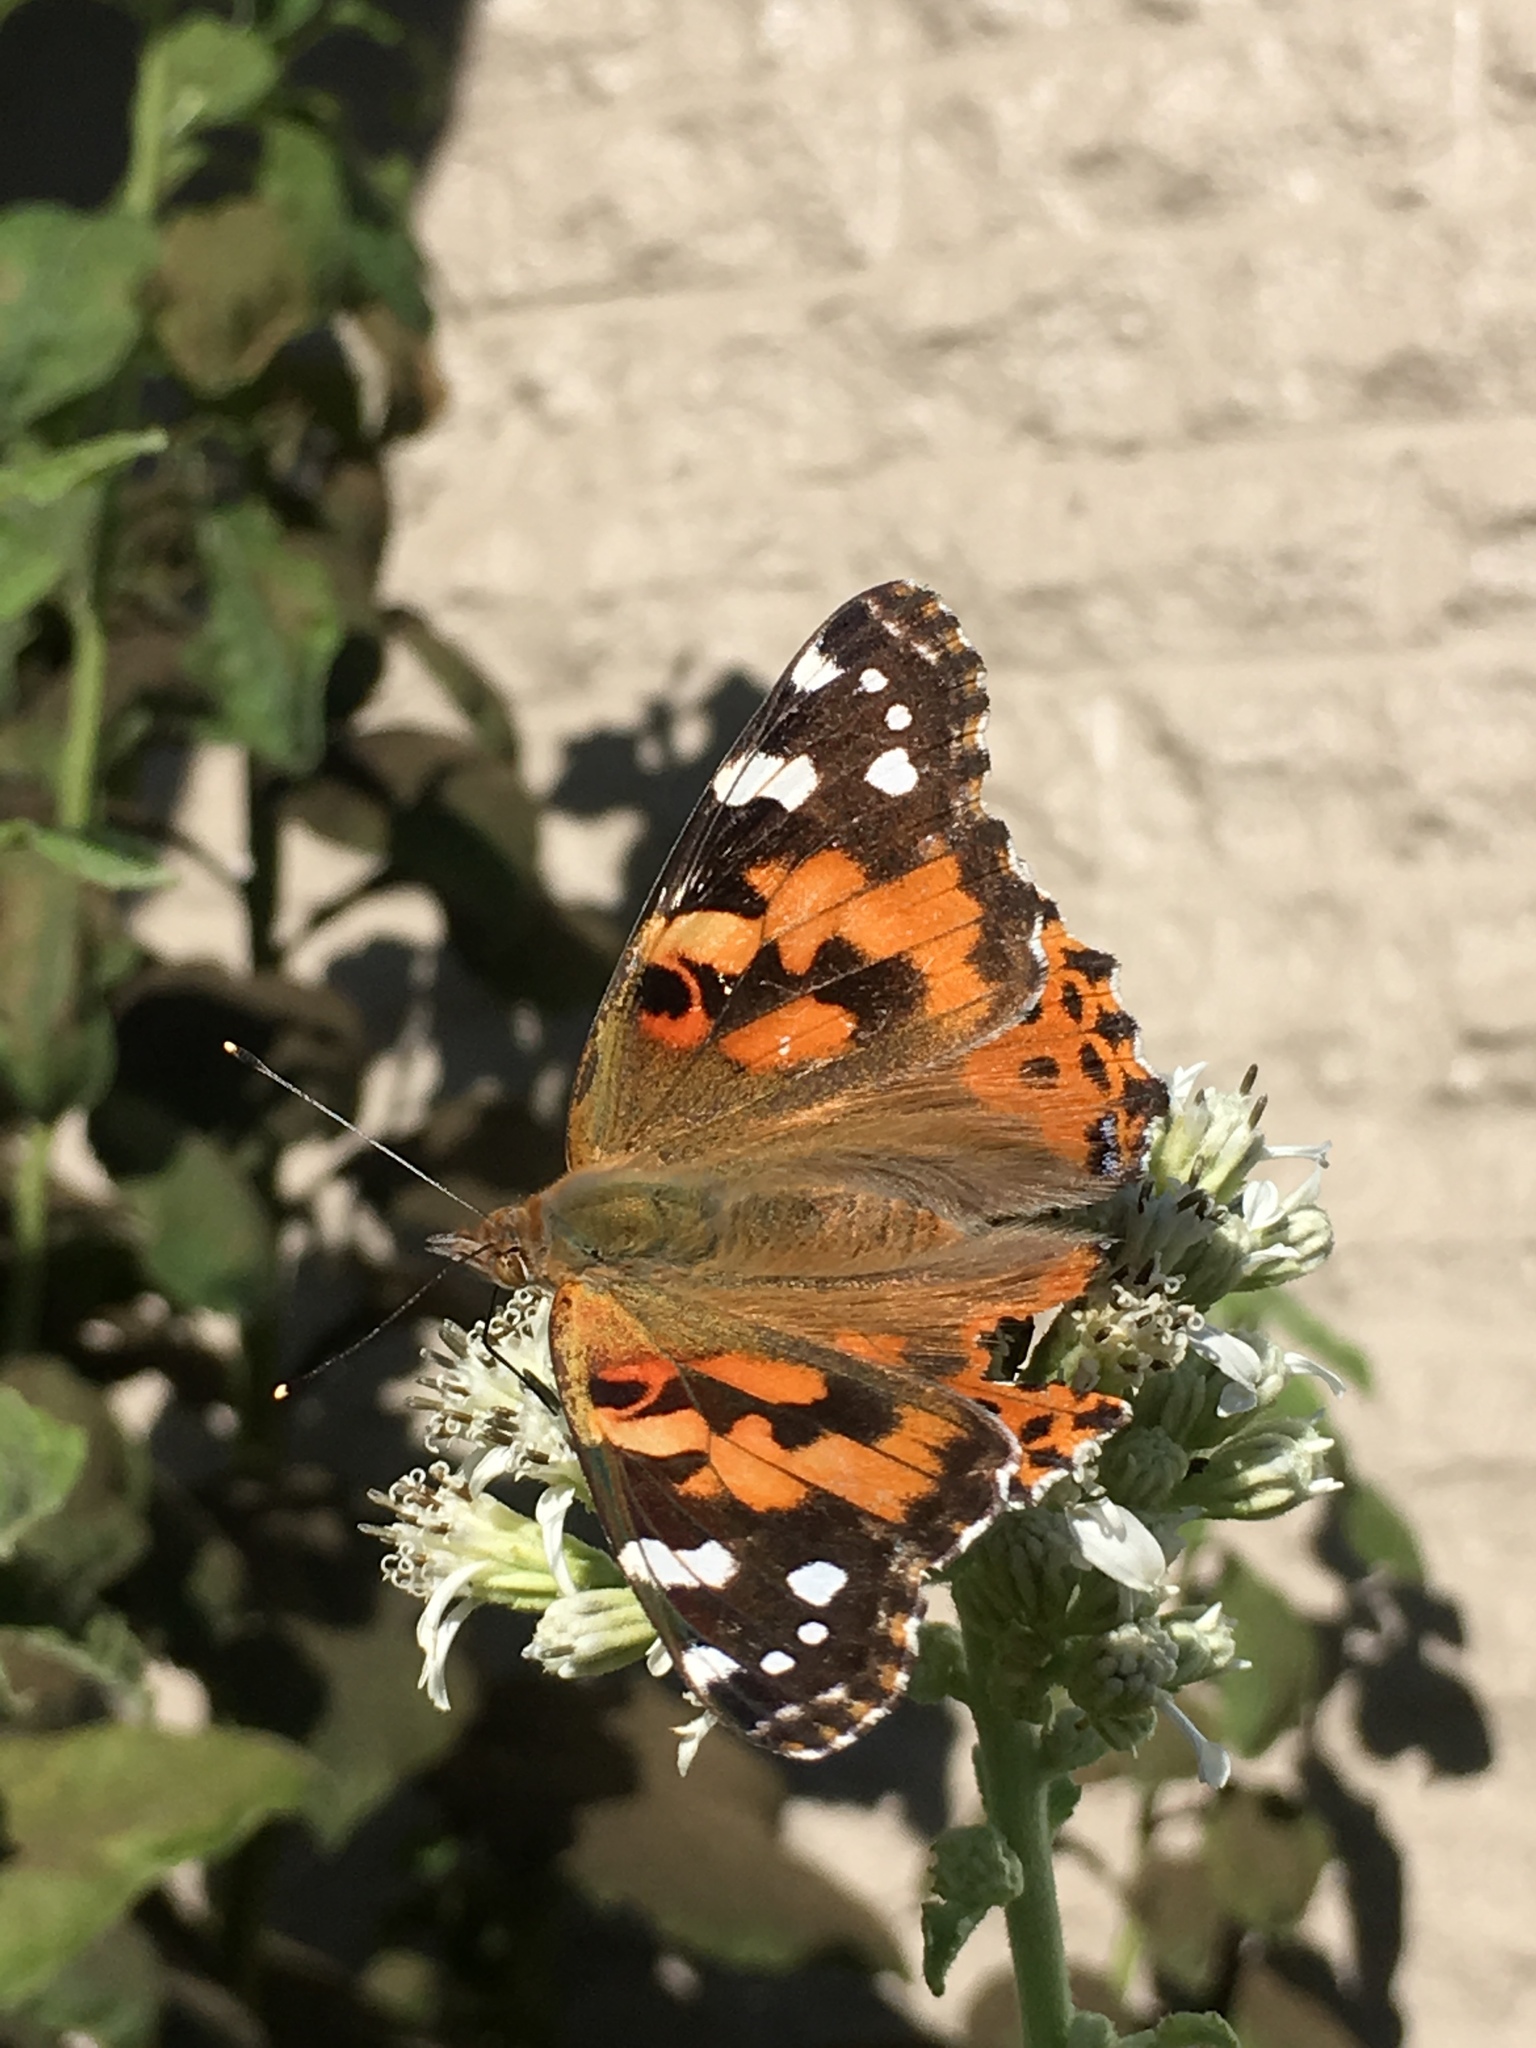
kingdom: Animalia
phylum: Arthropoda
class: Insecta
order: Lepidoptera
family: Nymphalidae
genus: Vanessa
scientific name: Vanessa cardui
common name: Painted lady
